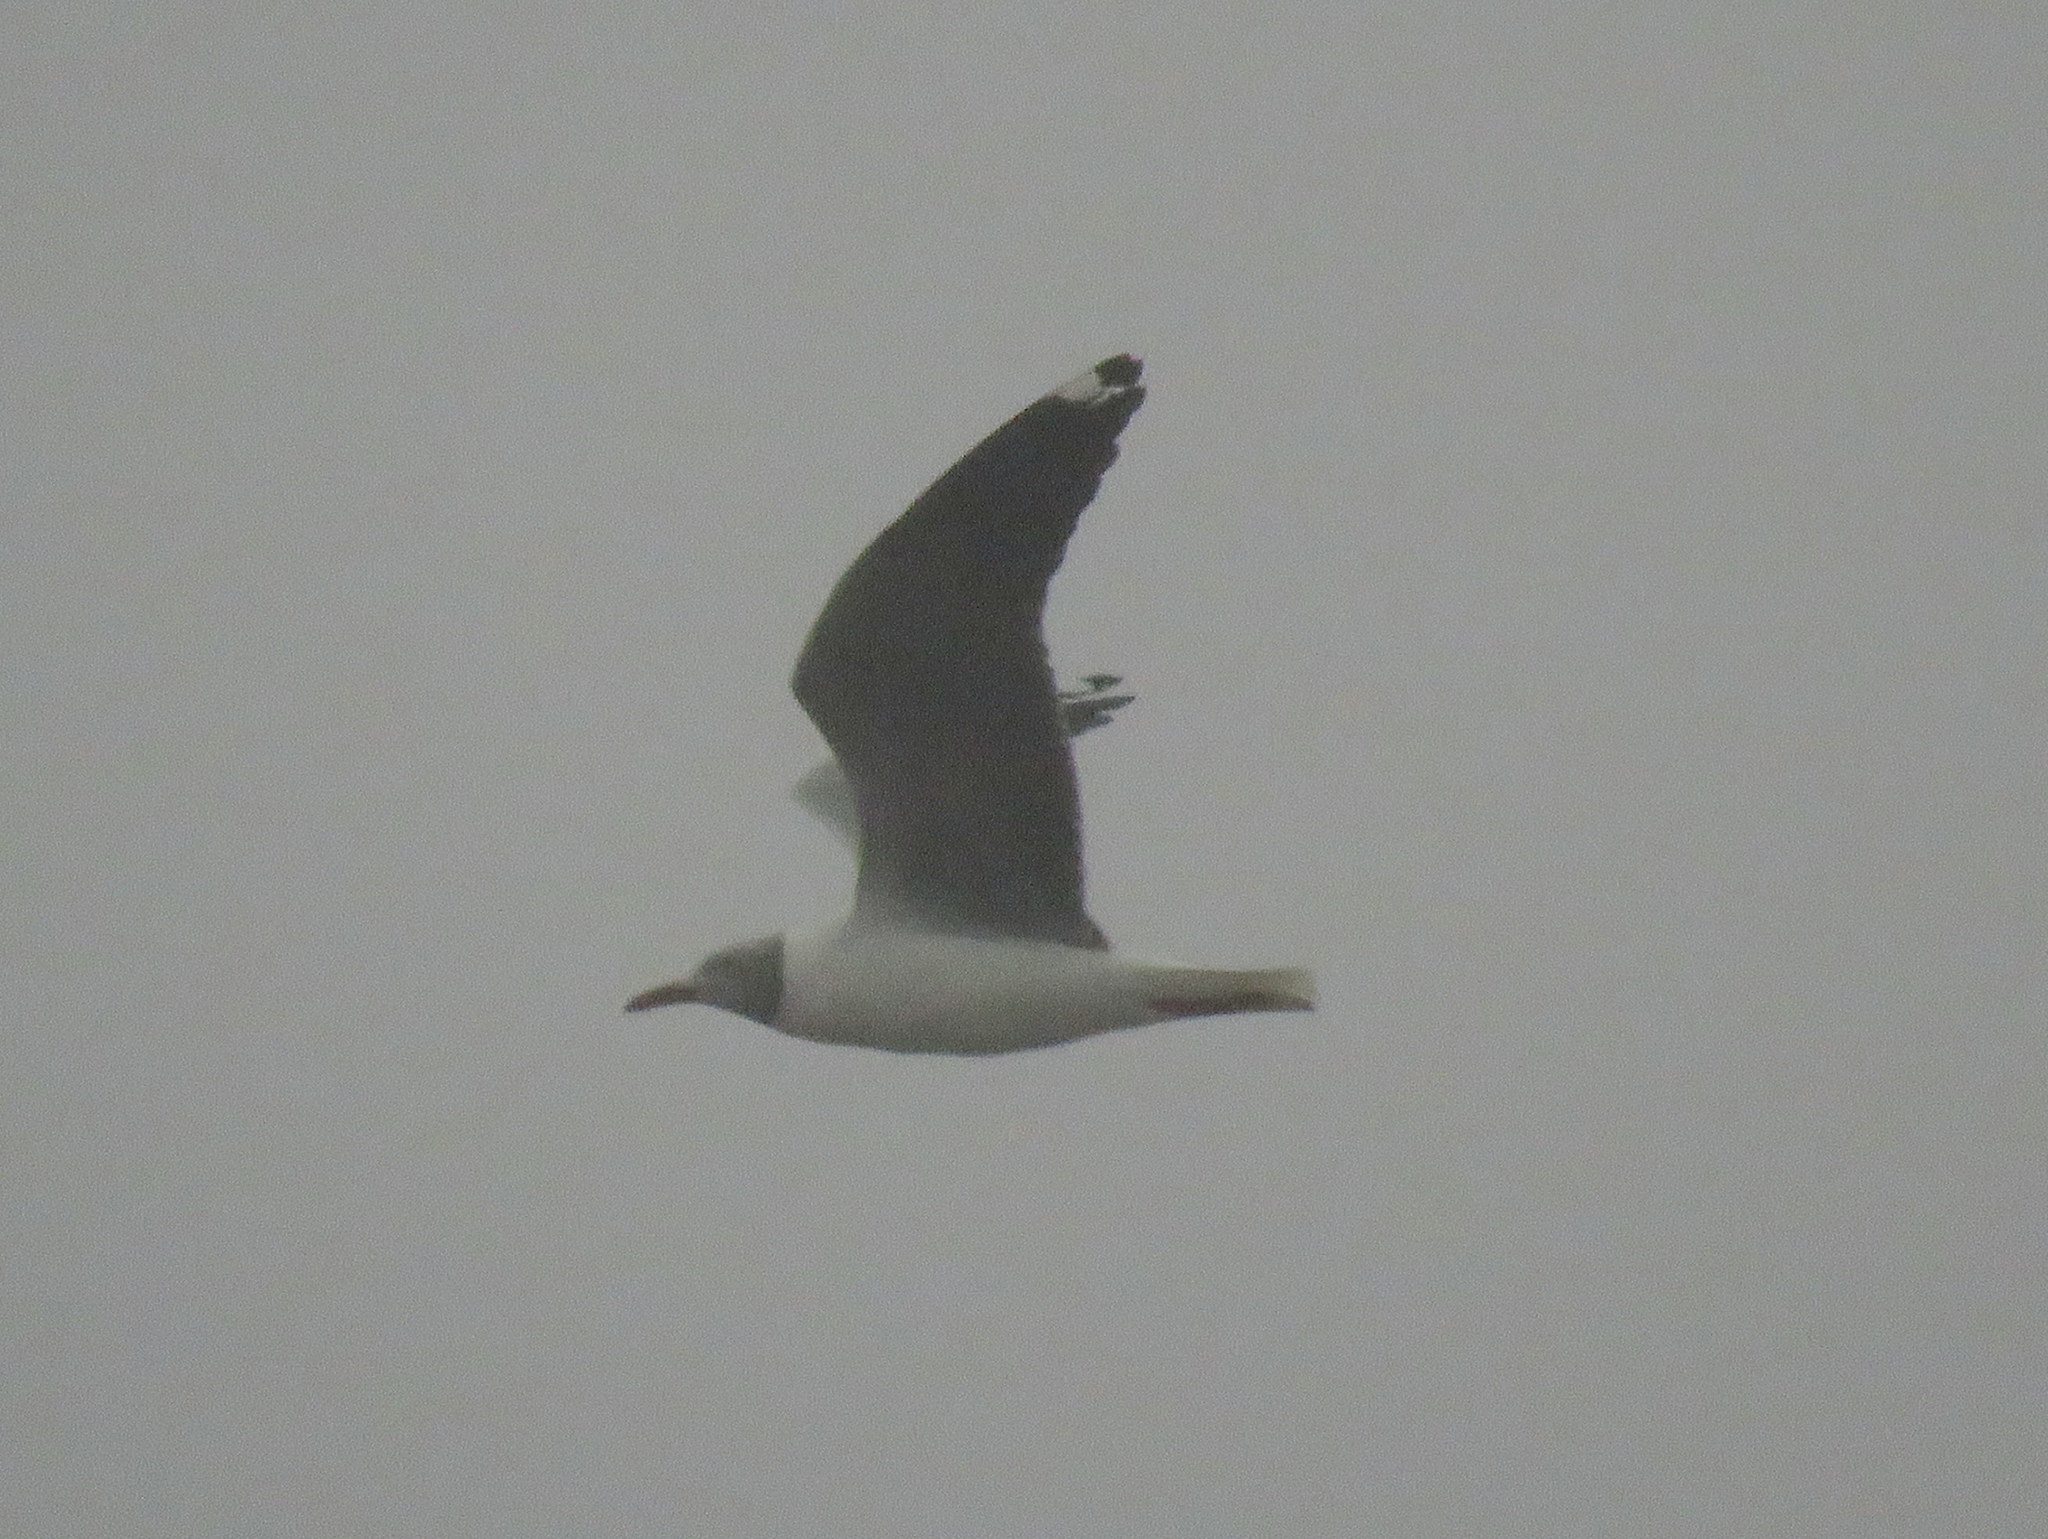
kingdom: Animalia
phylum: Chordata
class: Aves
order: Charadriiformes
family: Laridae
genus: Chroicocephalus
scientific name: Chroicocephalus maculipennis
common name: Brown-hooded gull
